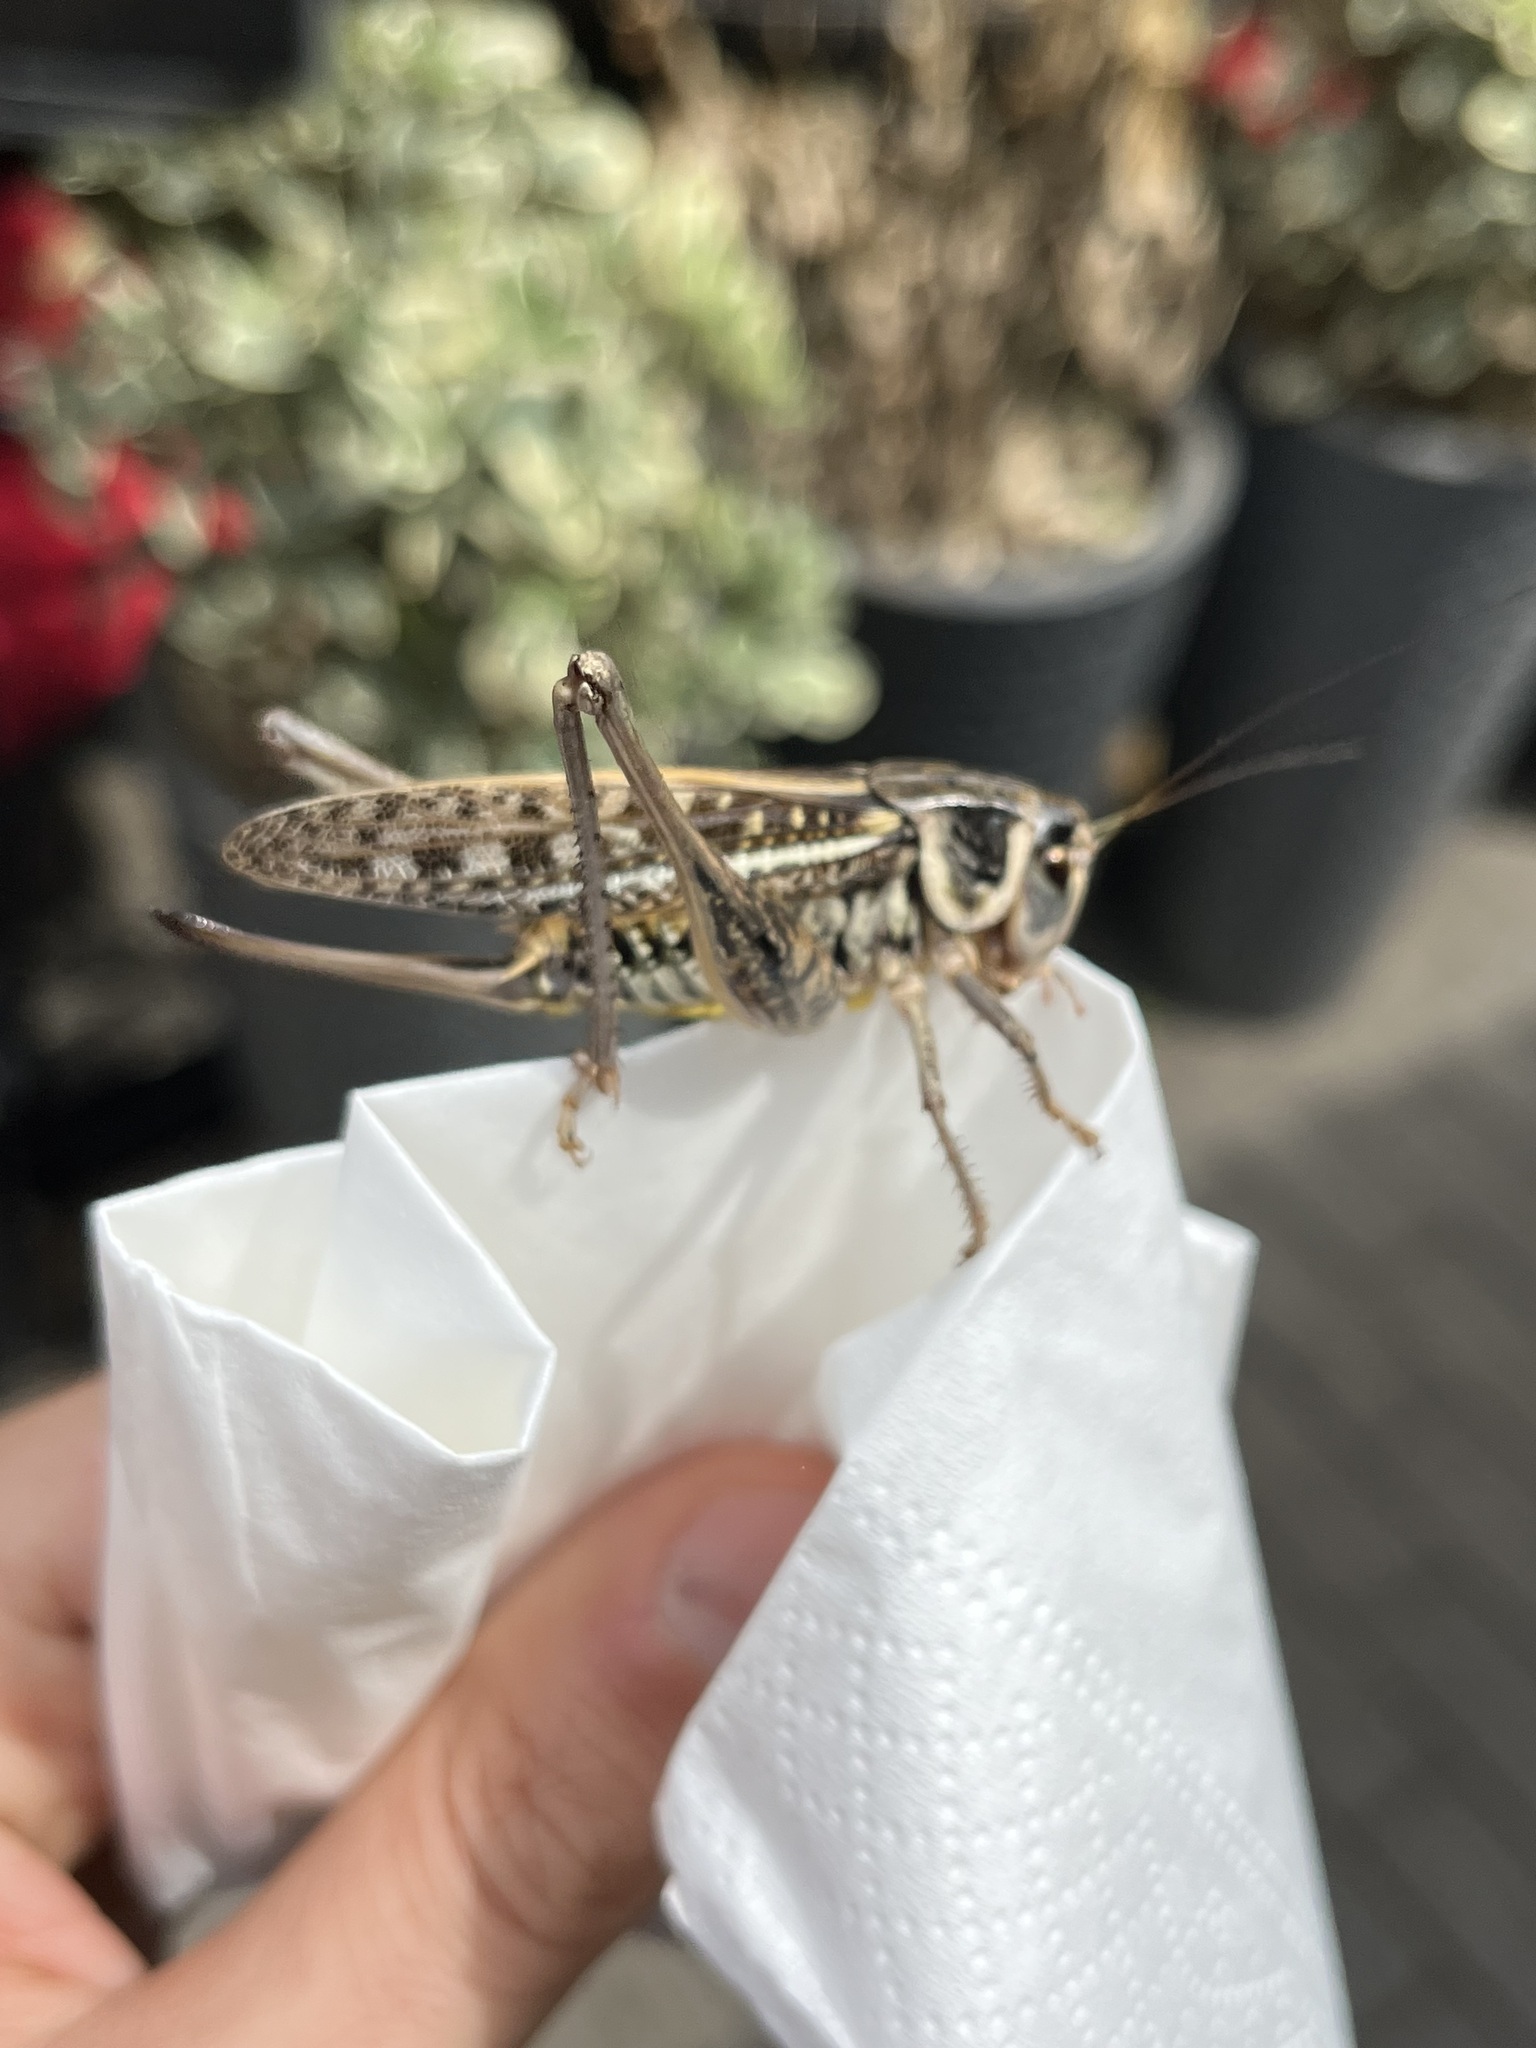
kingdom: Animalia
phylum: Arthropoda
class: Insecta
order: Orthoptera
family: Tettigoniidae
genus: Decticus
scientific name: Decticus albifrons
